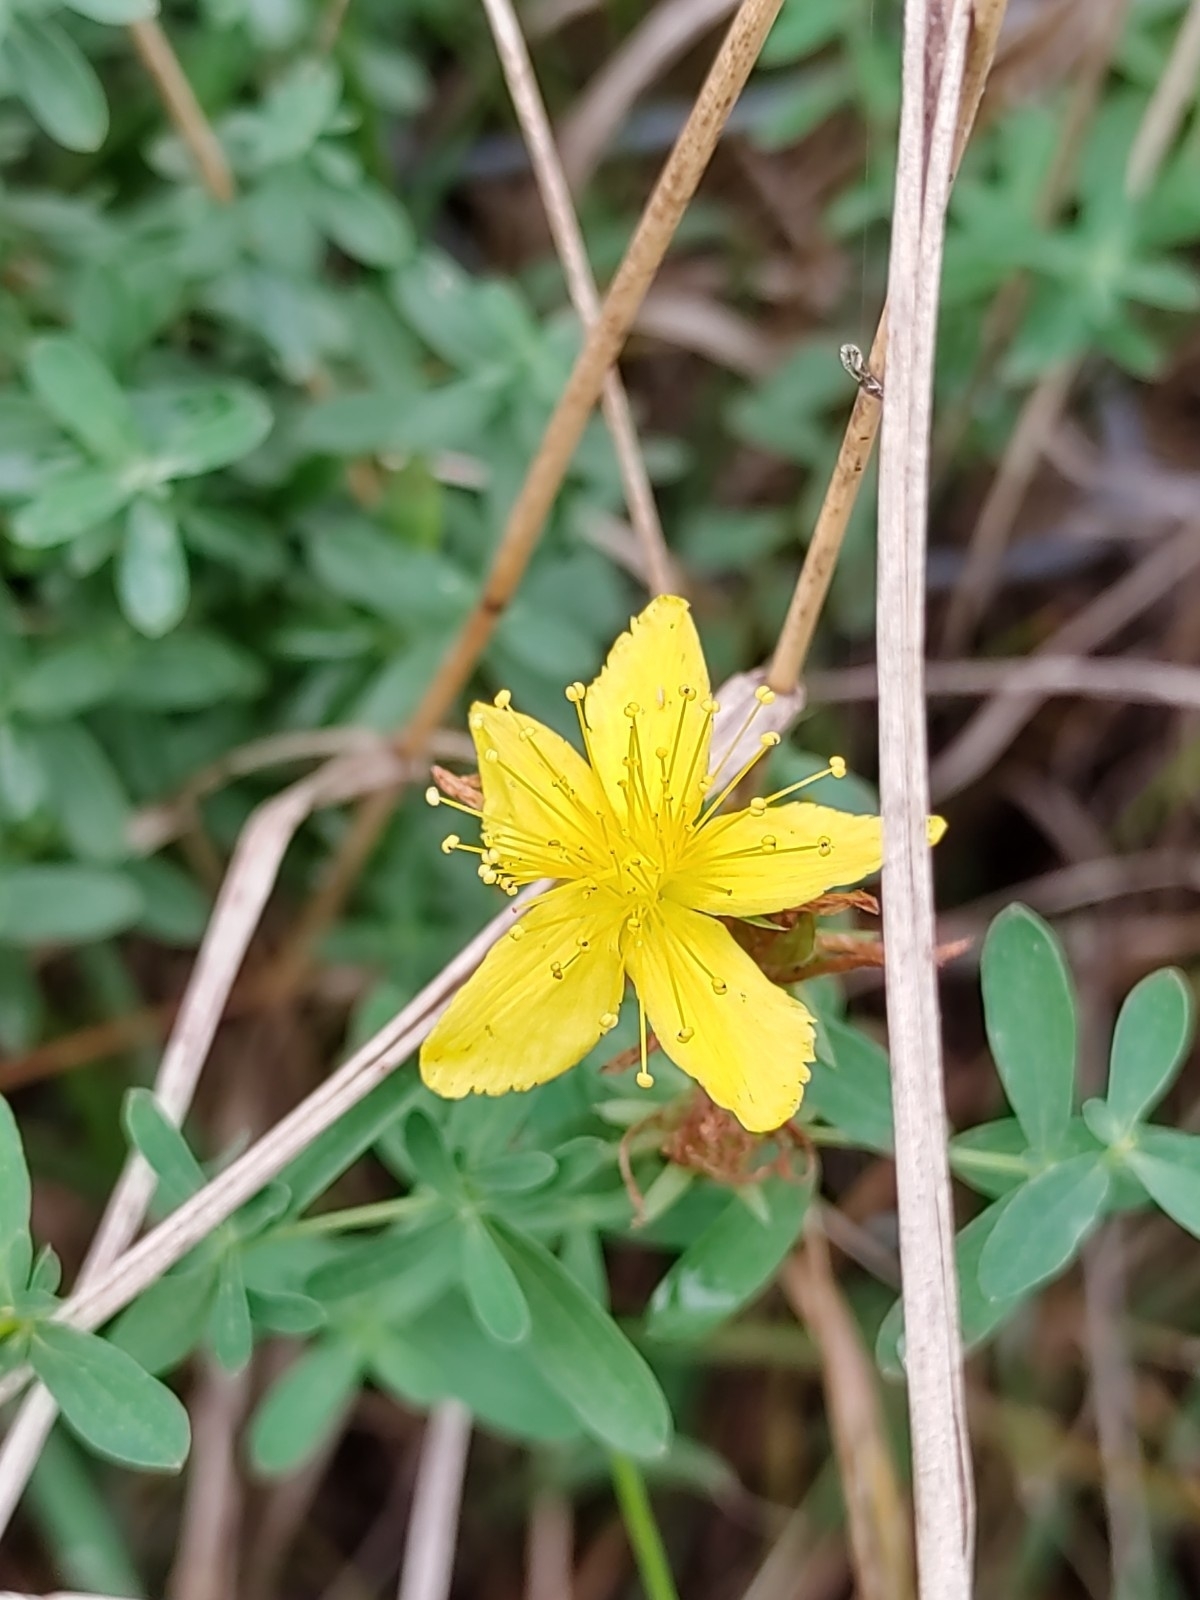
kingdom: Plantae
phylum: Tracheophyta
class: Magnoliopsida
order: Malpighiales
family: Hypericaceae
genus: Hypericum
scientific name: Hypericum perforatum
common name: Common st. johnswort
